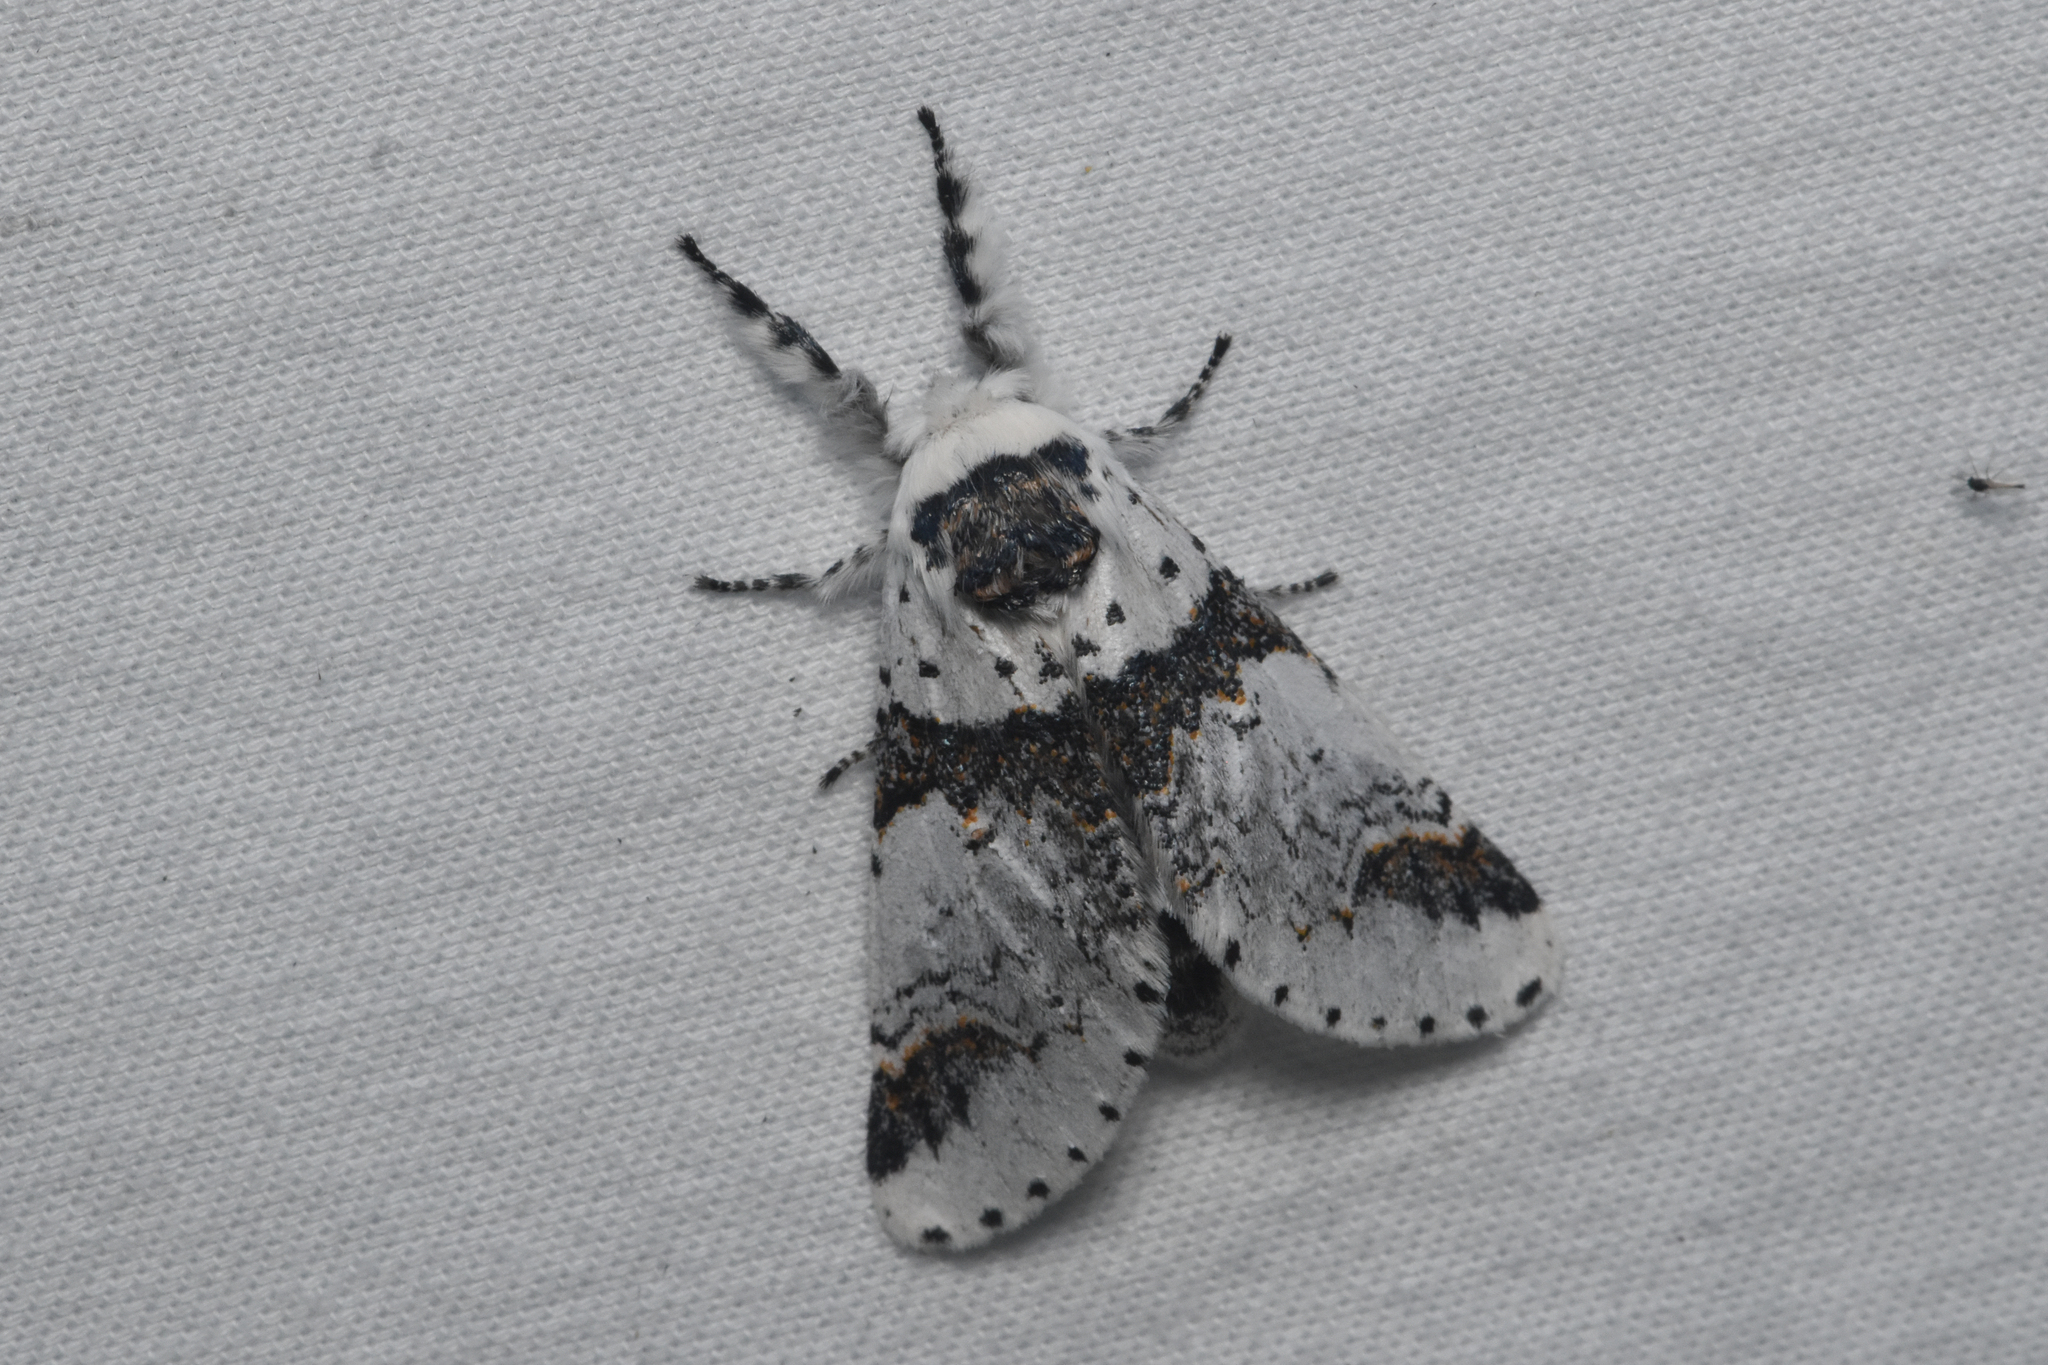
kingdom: Animalia
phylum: Arthropoda
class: Insecta
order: Lepidoptera
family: Notodontidae
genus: Furcula
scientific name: Furcula scolopendrina
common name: Zigzag furcula moth
